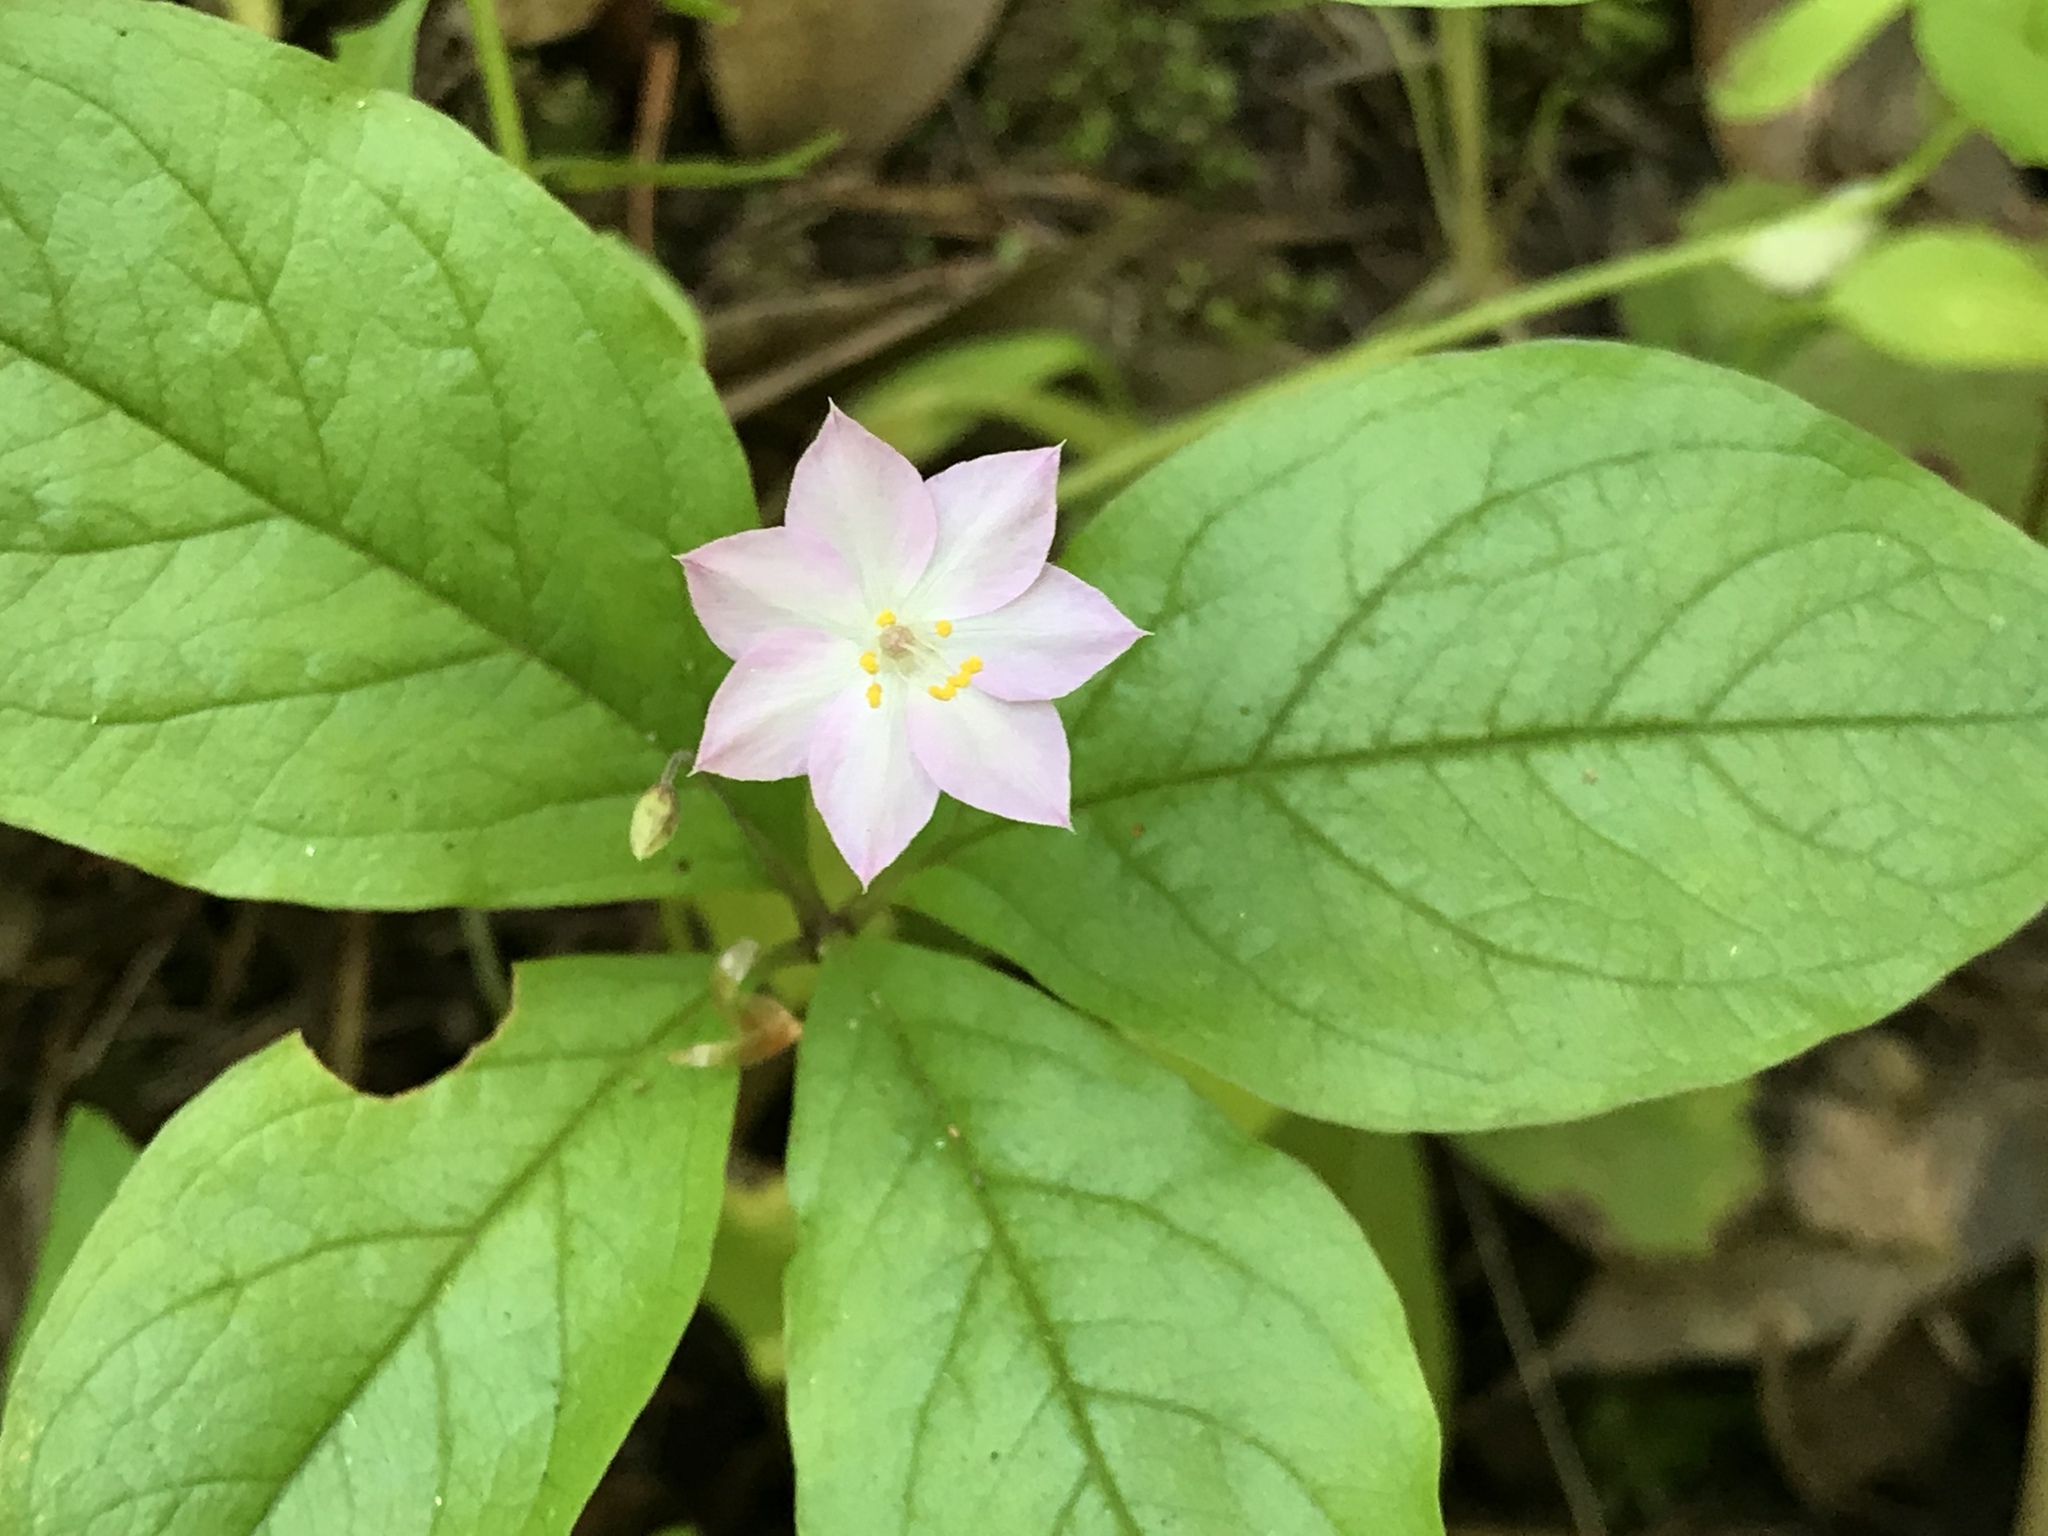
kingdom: Plantae
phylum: Tracheophyta
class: Magnoliopsida
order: Ericales
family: Primulaceae
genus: Lysimachia
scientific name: Lysimachia latifolia
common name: Pacific starflower
